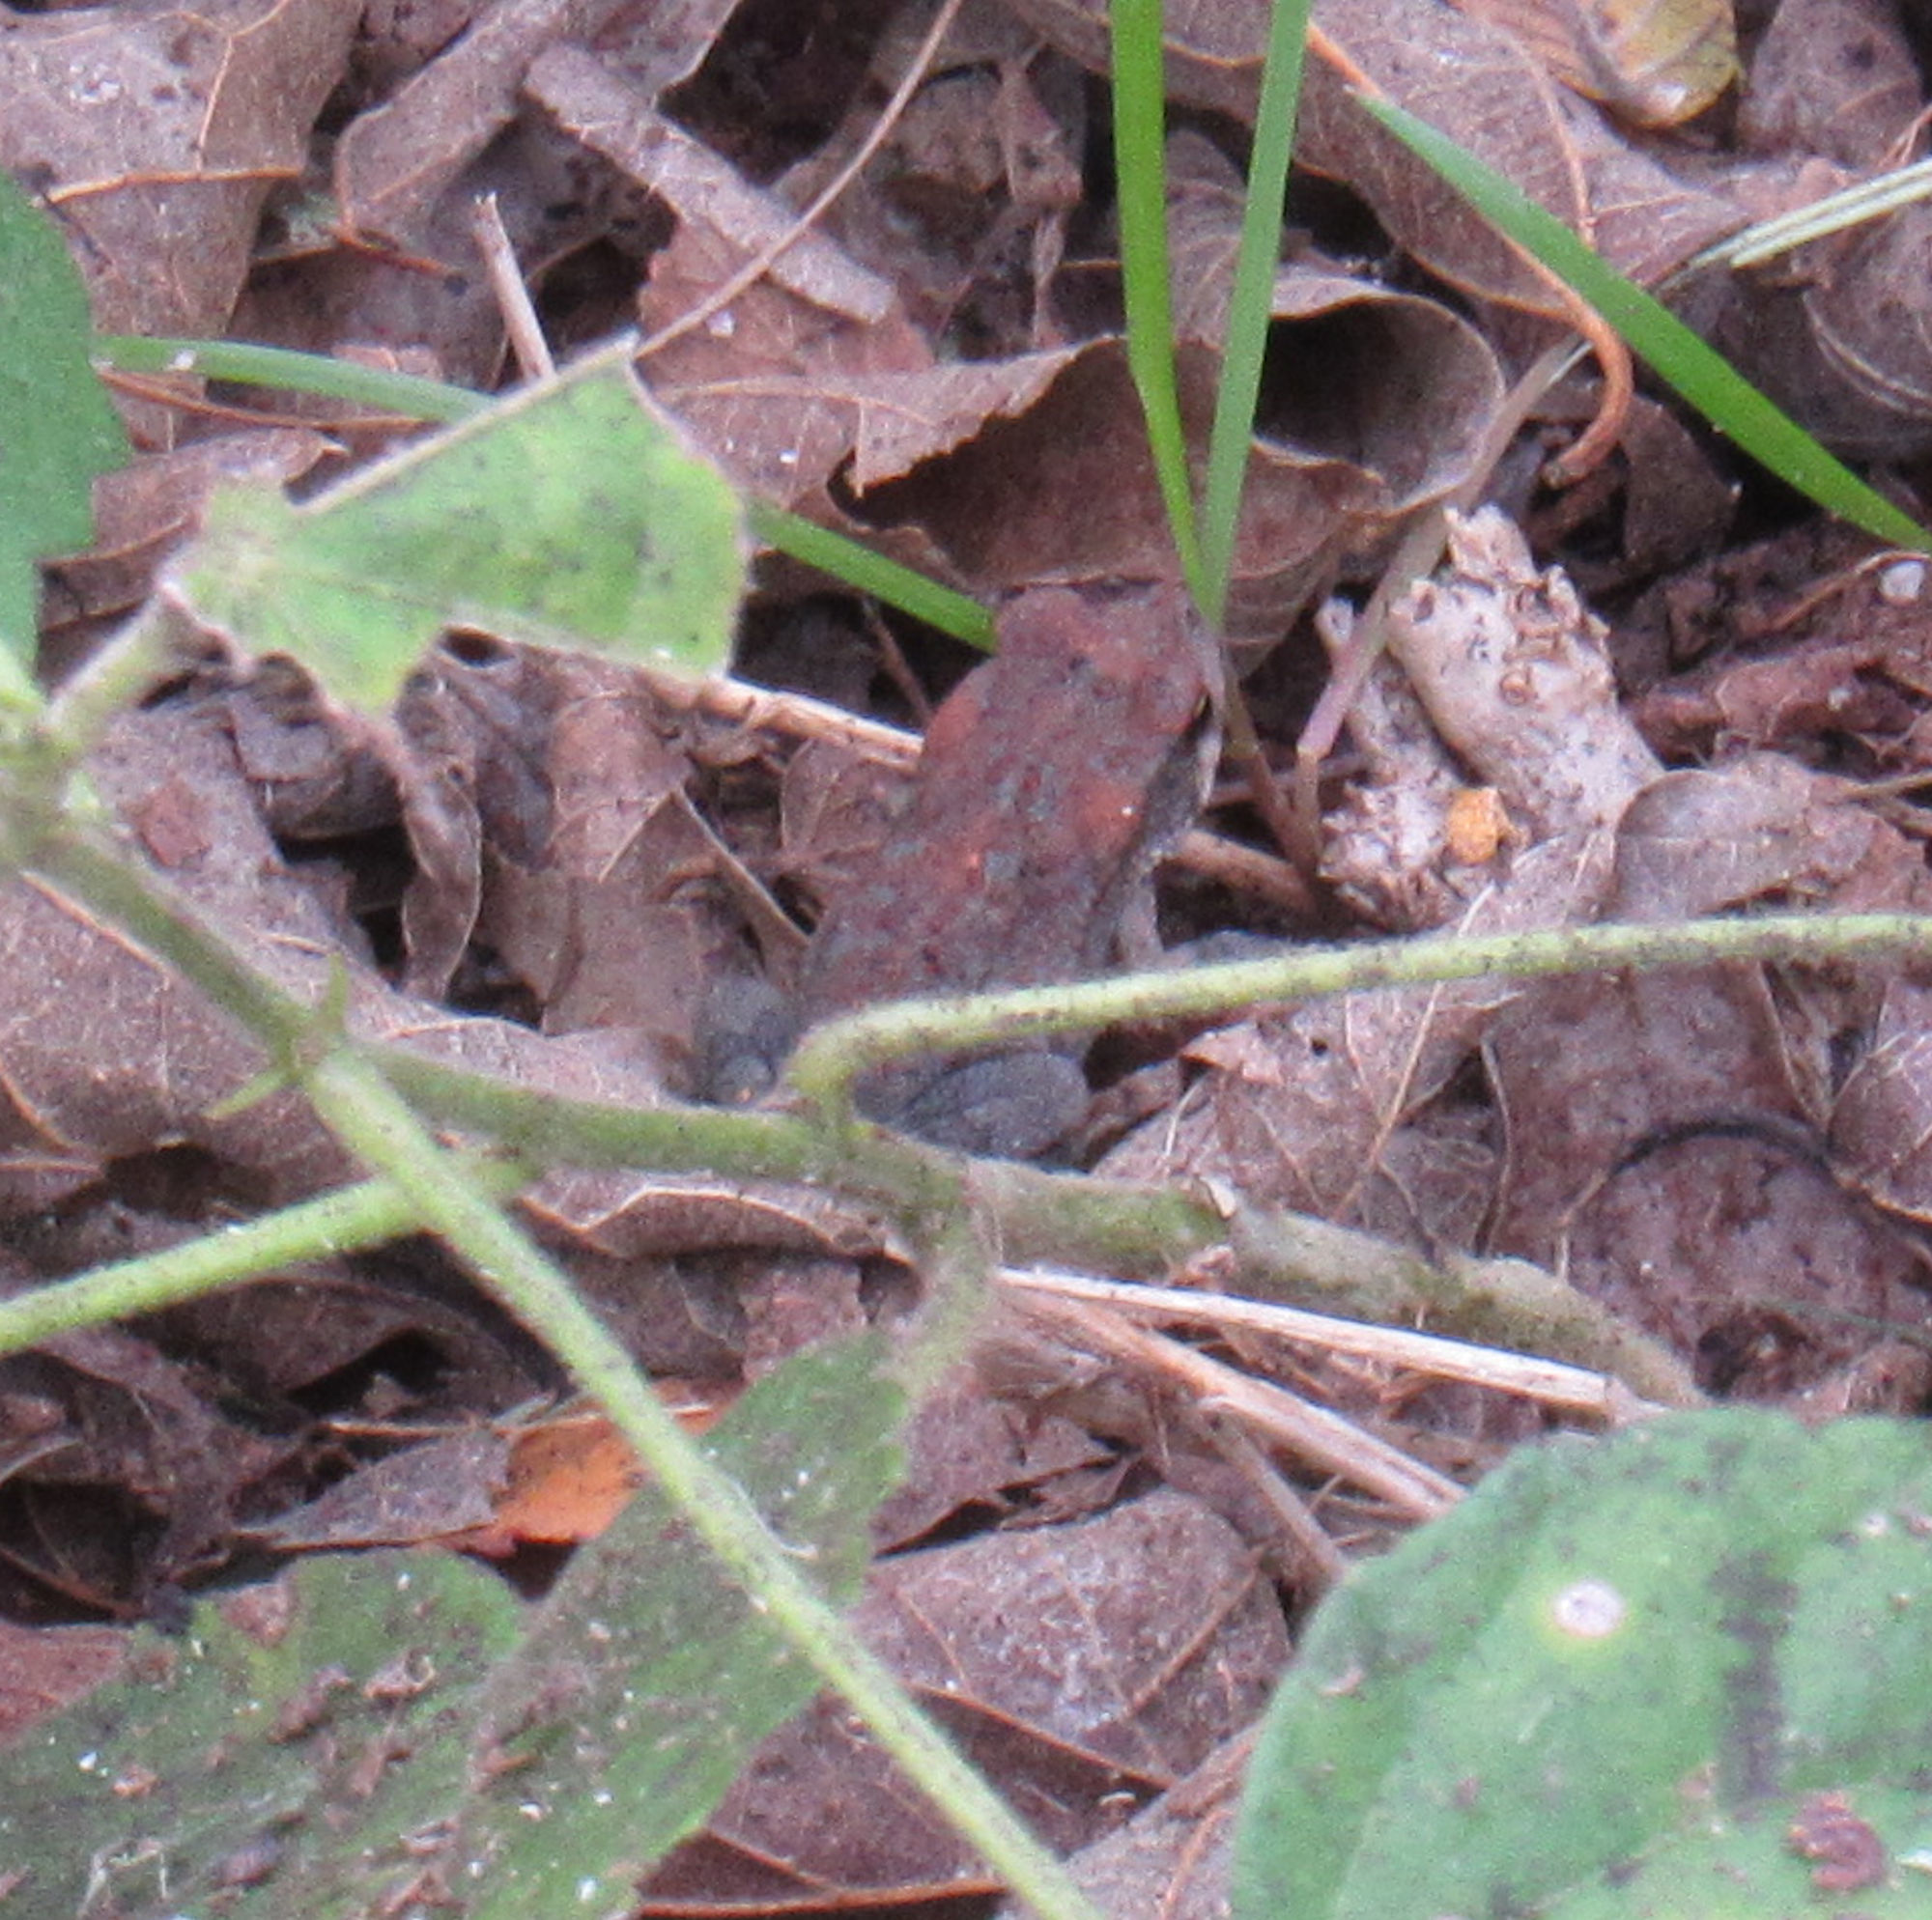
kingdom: Animalia
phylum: Chordata
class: Amphibia
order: Anura
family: Bufonidae
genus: Incilius
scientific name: Incilius nebulifer
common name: Gulf coast toad
